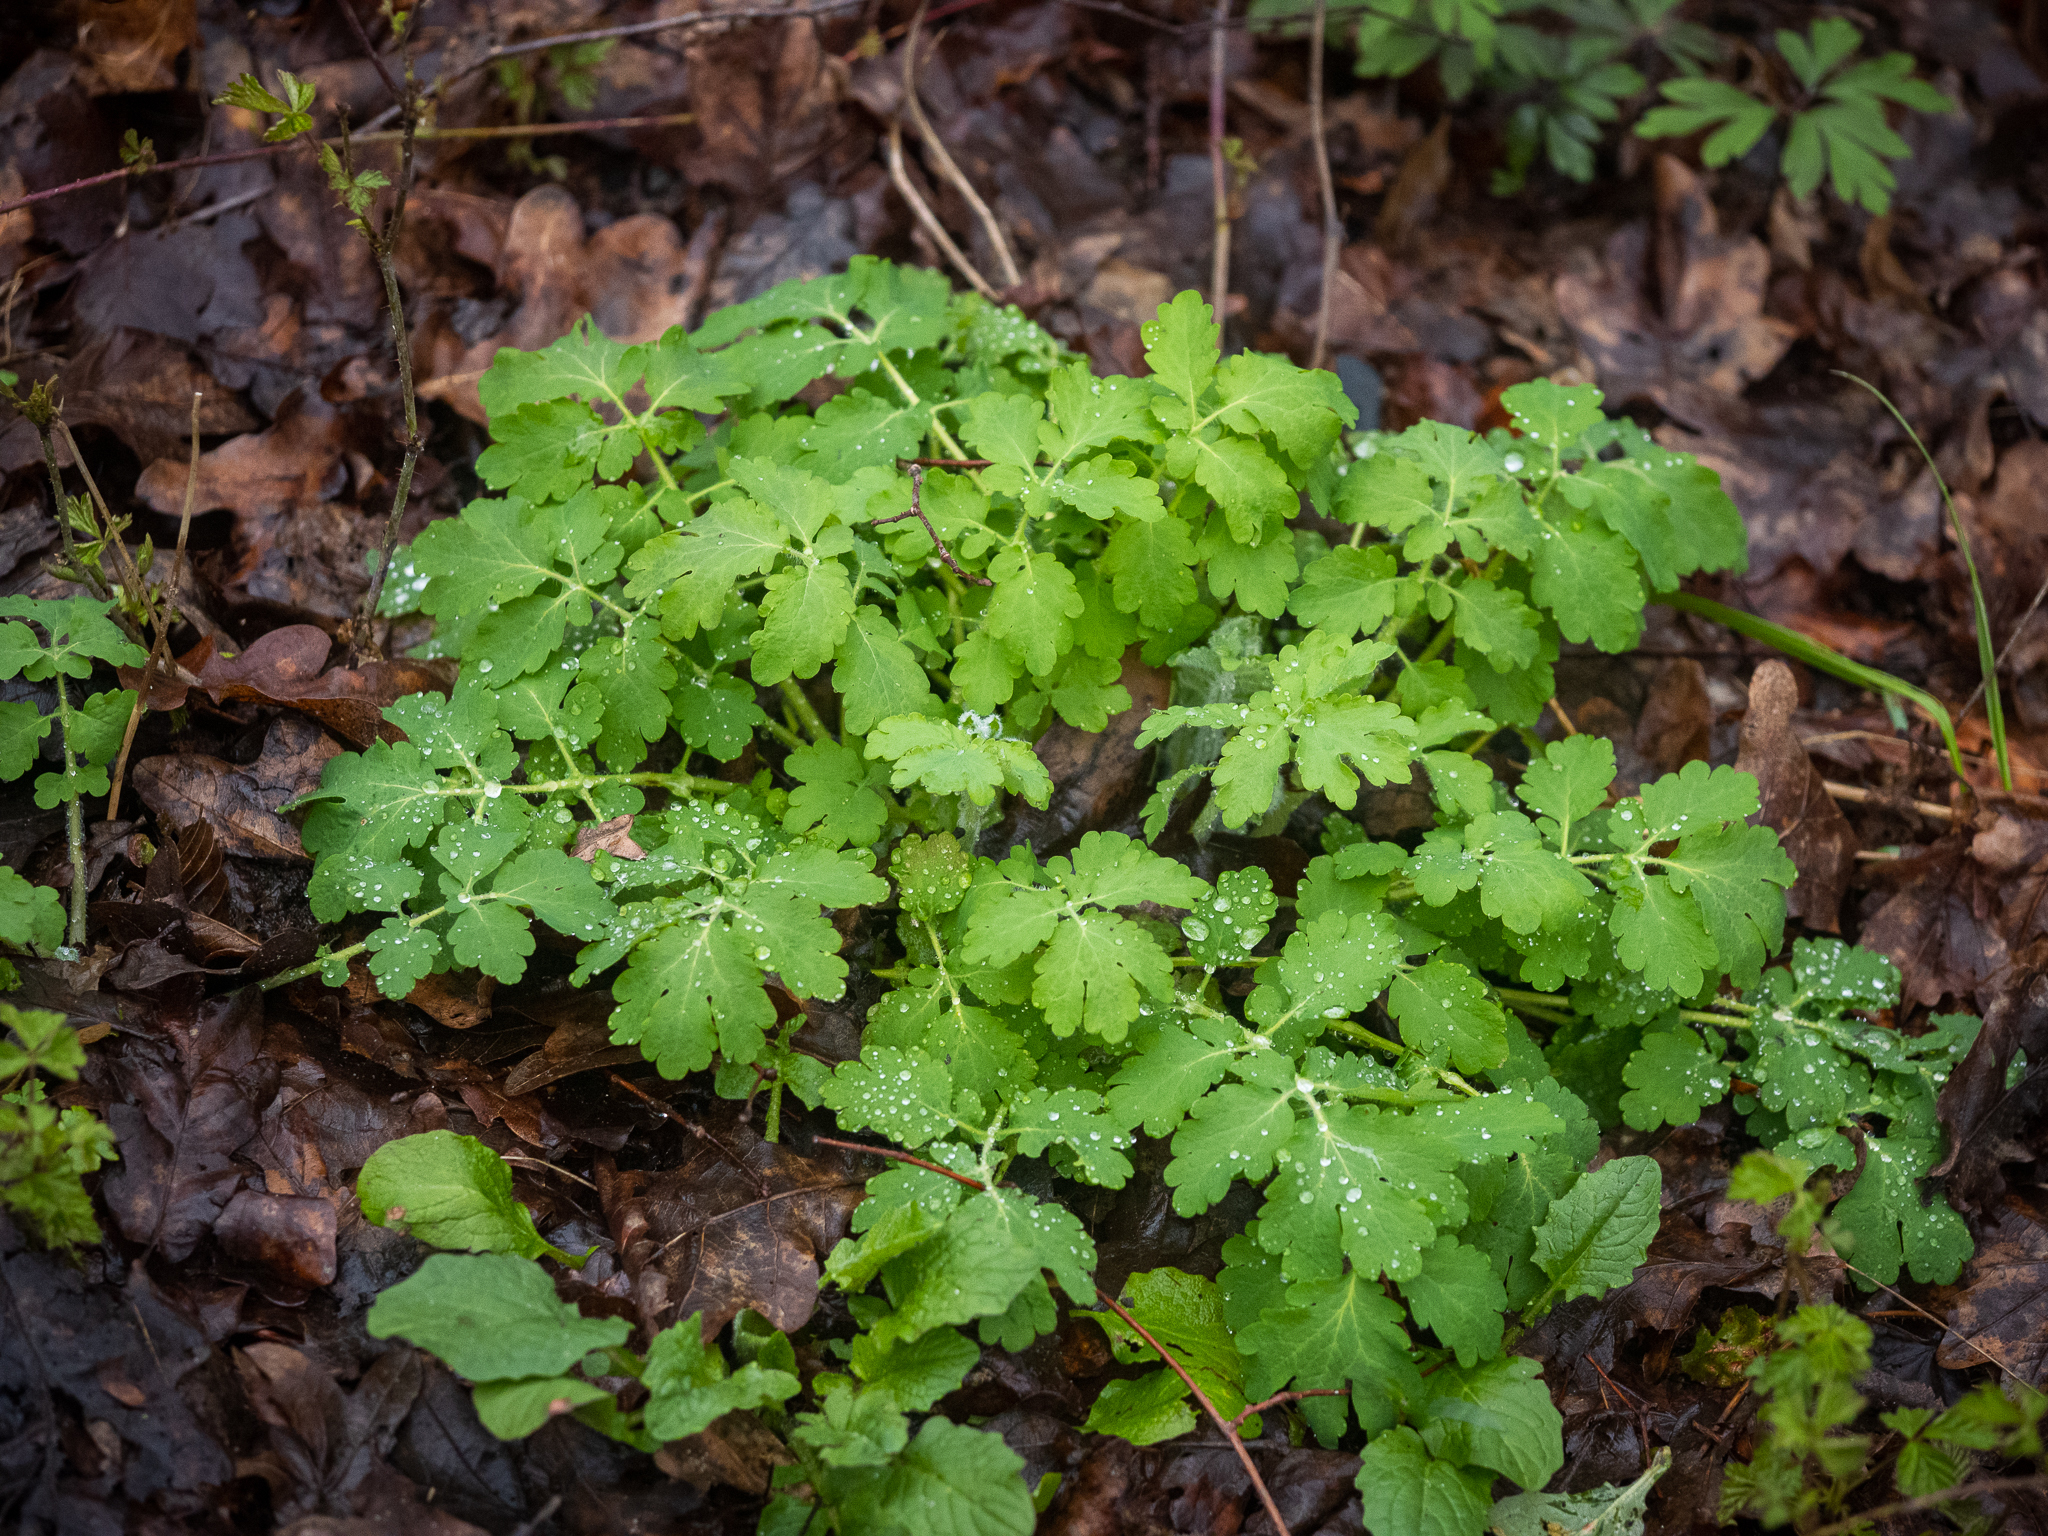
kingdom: Plantae
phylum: Tracheophyta
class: Magnoliopsida
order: Ranunculales
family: Papaveraceae
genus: Chelidonium
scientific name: Chelidonium majus
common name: Greater celandine
